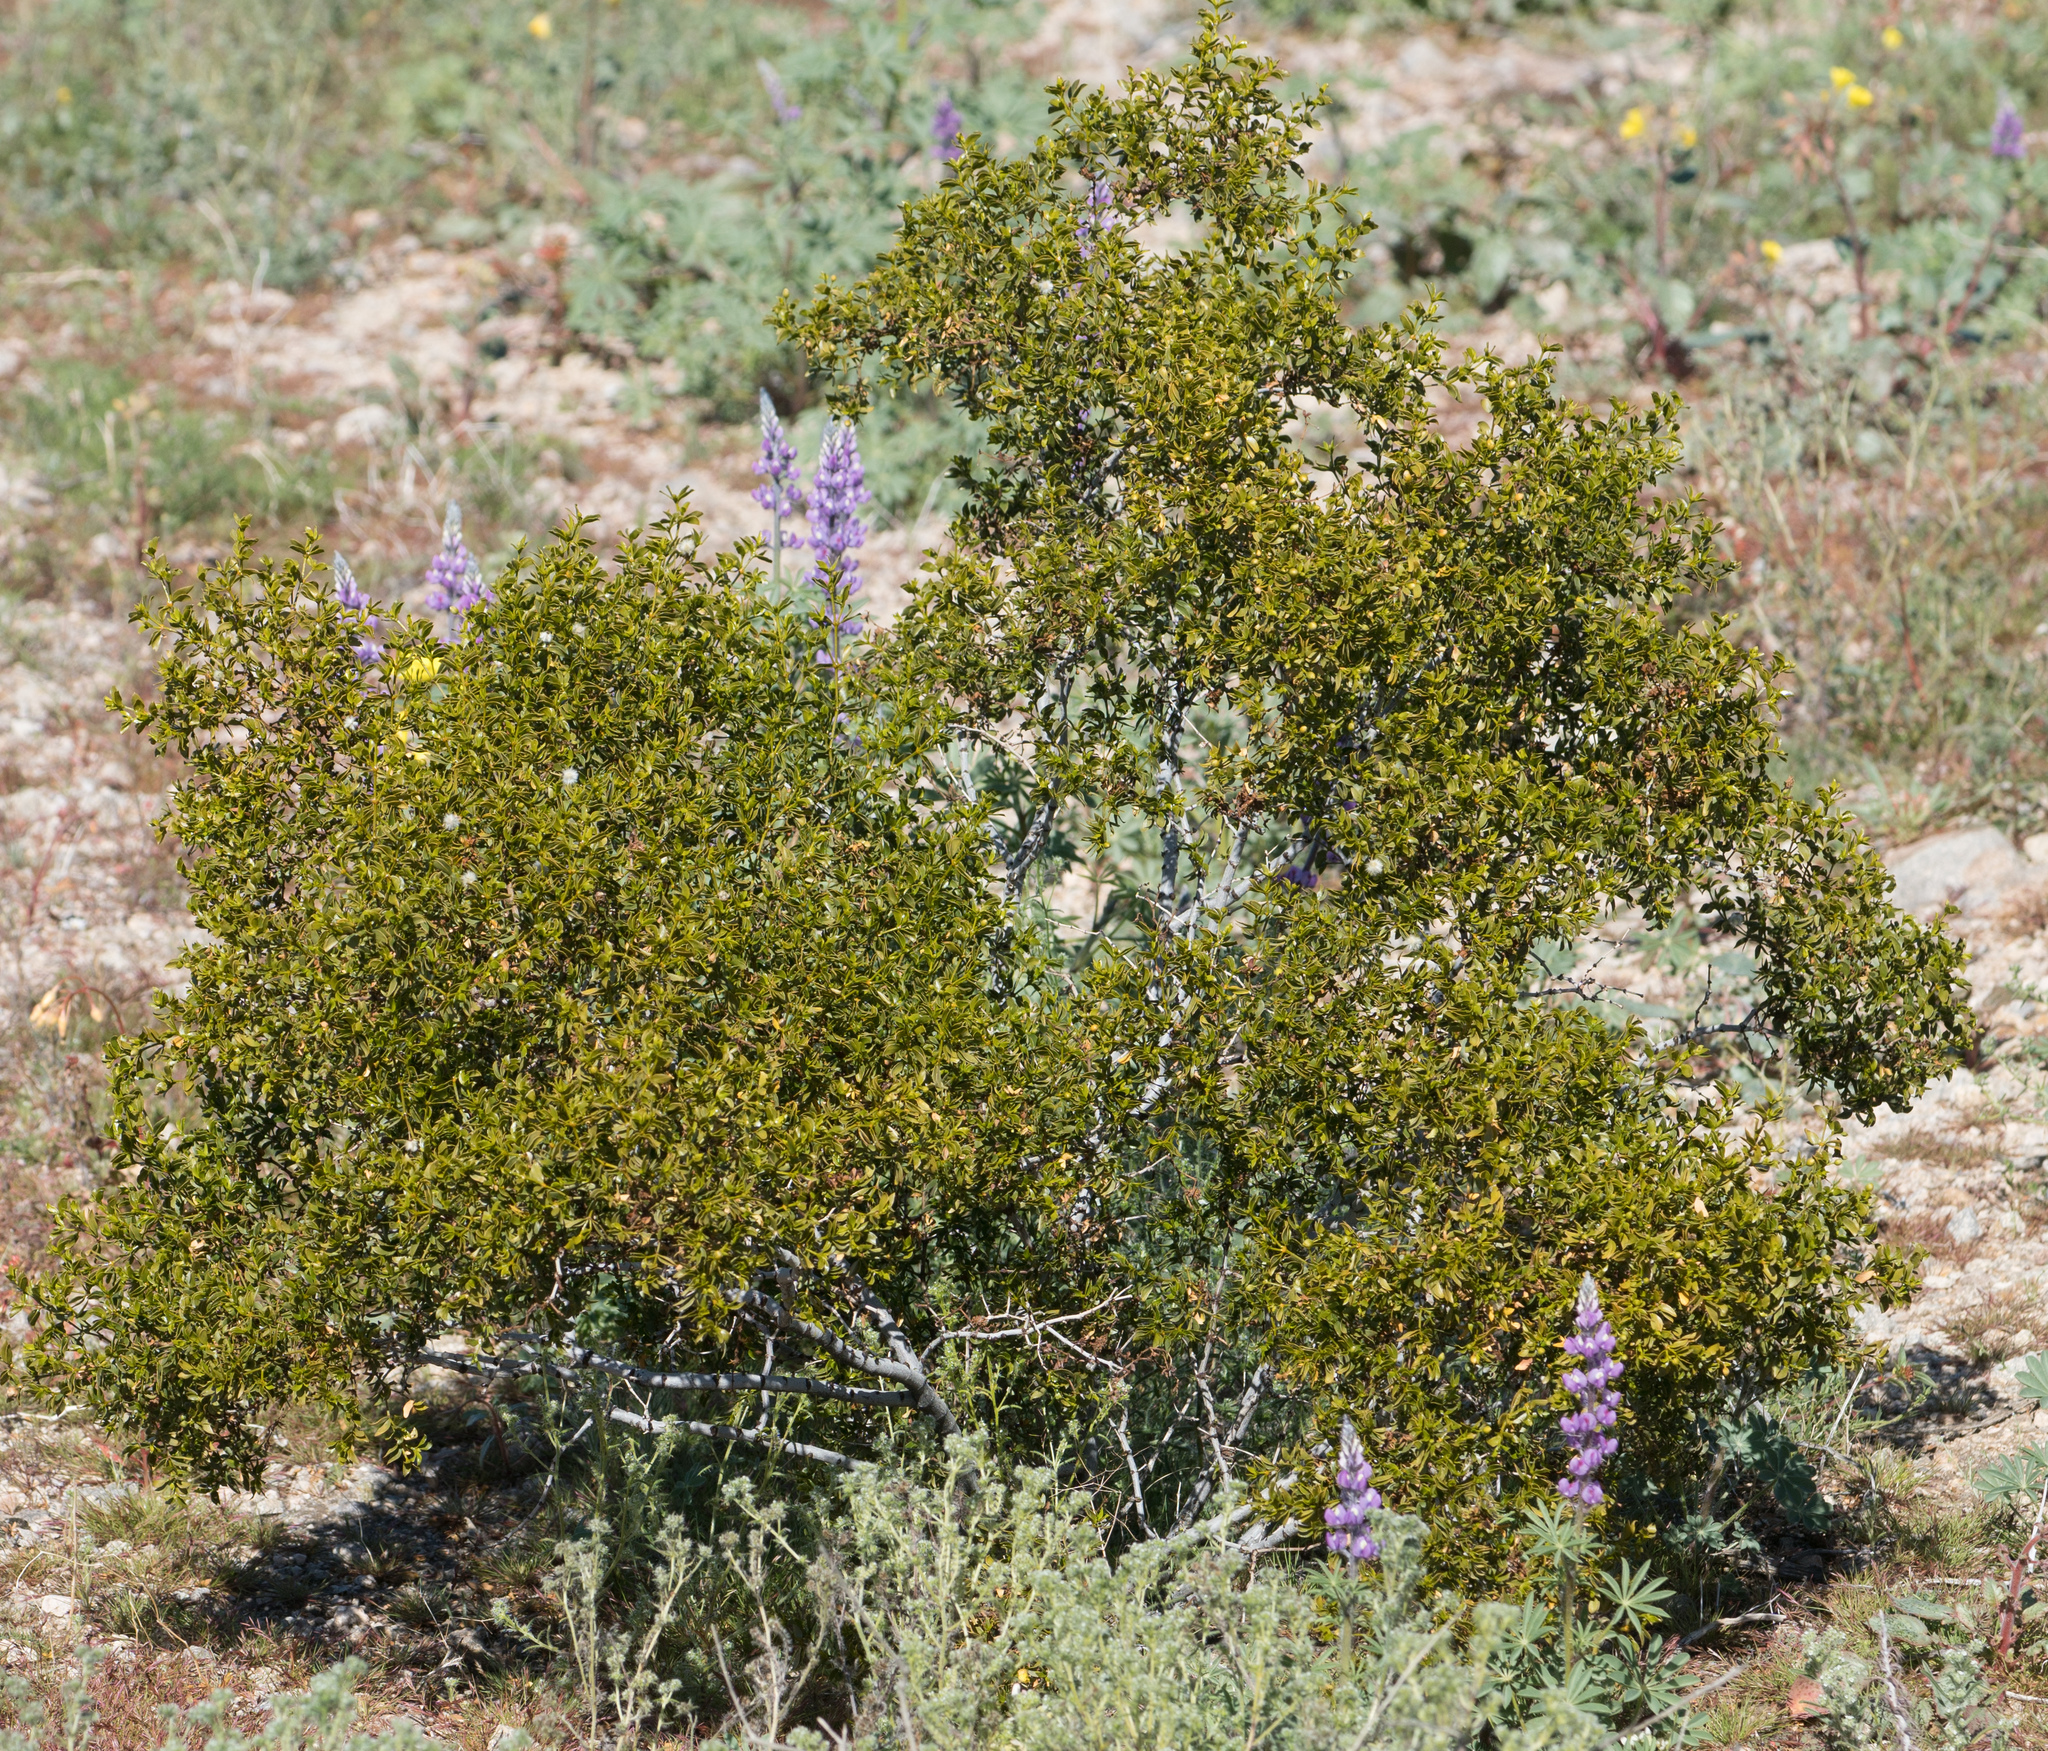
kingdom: Plantae
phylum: Tracheophyta
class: Magnoliopsida
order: Zygophyllales
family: Zygophyllaceae
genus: Larrea
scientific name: Larrea tridentata
